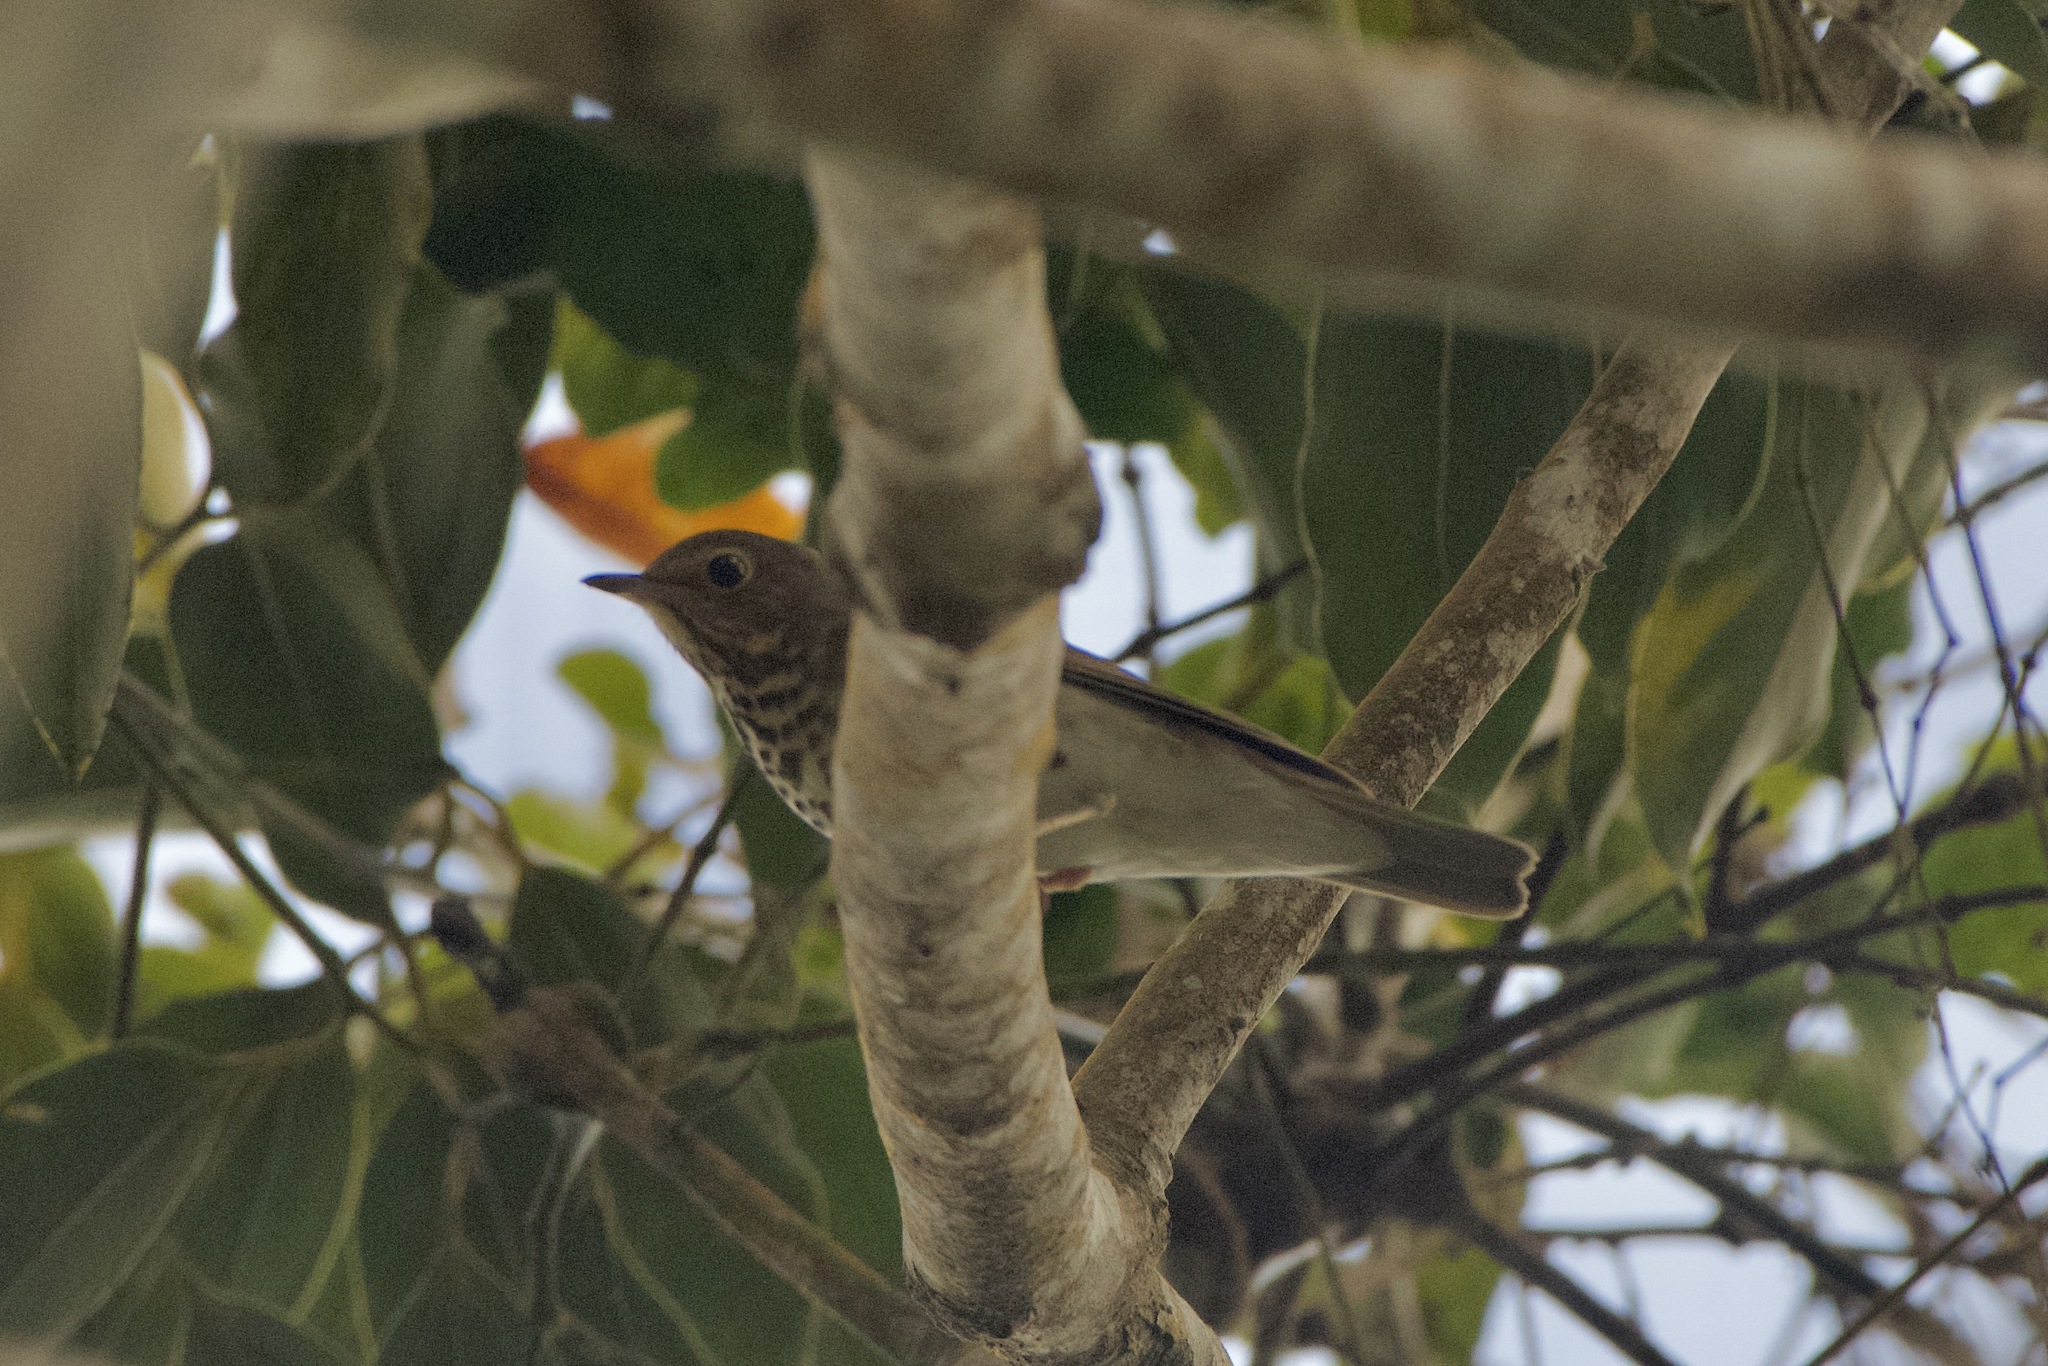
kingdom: Animalia
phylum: Chordata
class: Aves
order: Passeriformes
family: Turdidae
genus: Catharus
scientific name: Catharus ustulatus
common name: Swainson's thrush
